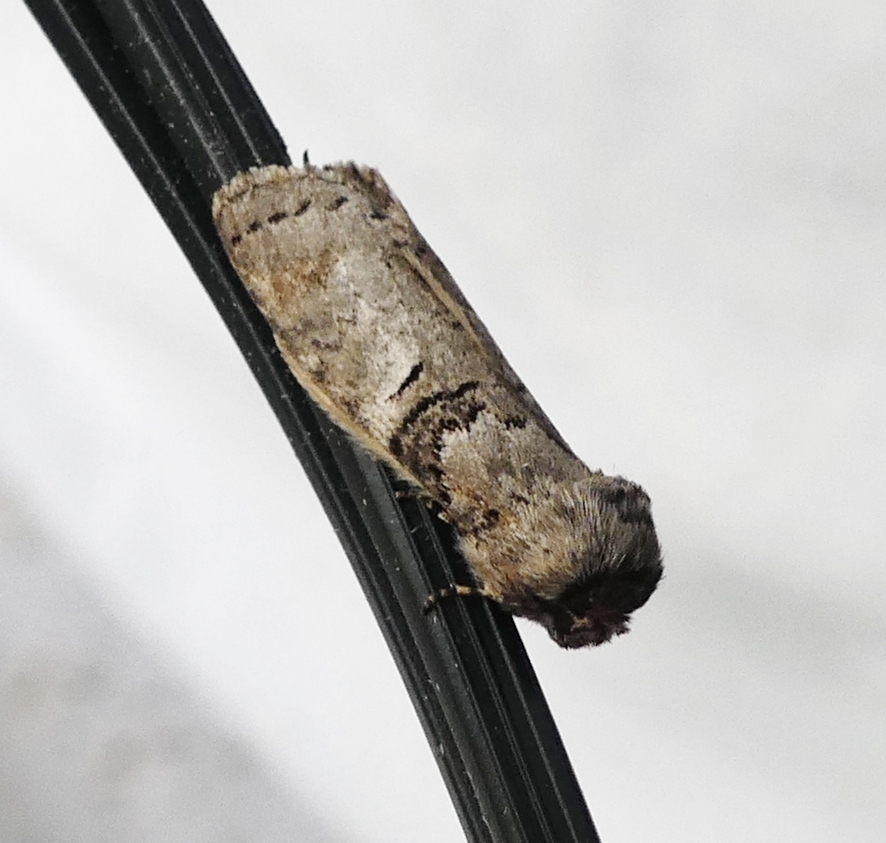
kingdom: Animalia
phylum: Arthropoda
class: Insecta
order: Lepidoptera
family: Notodontidae
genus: Ellida
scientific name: Ellida caniplaga
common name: Linden prominent
